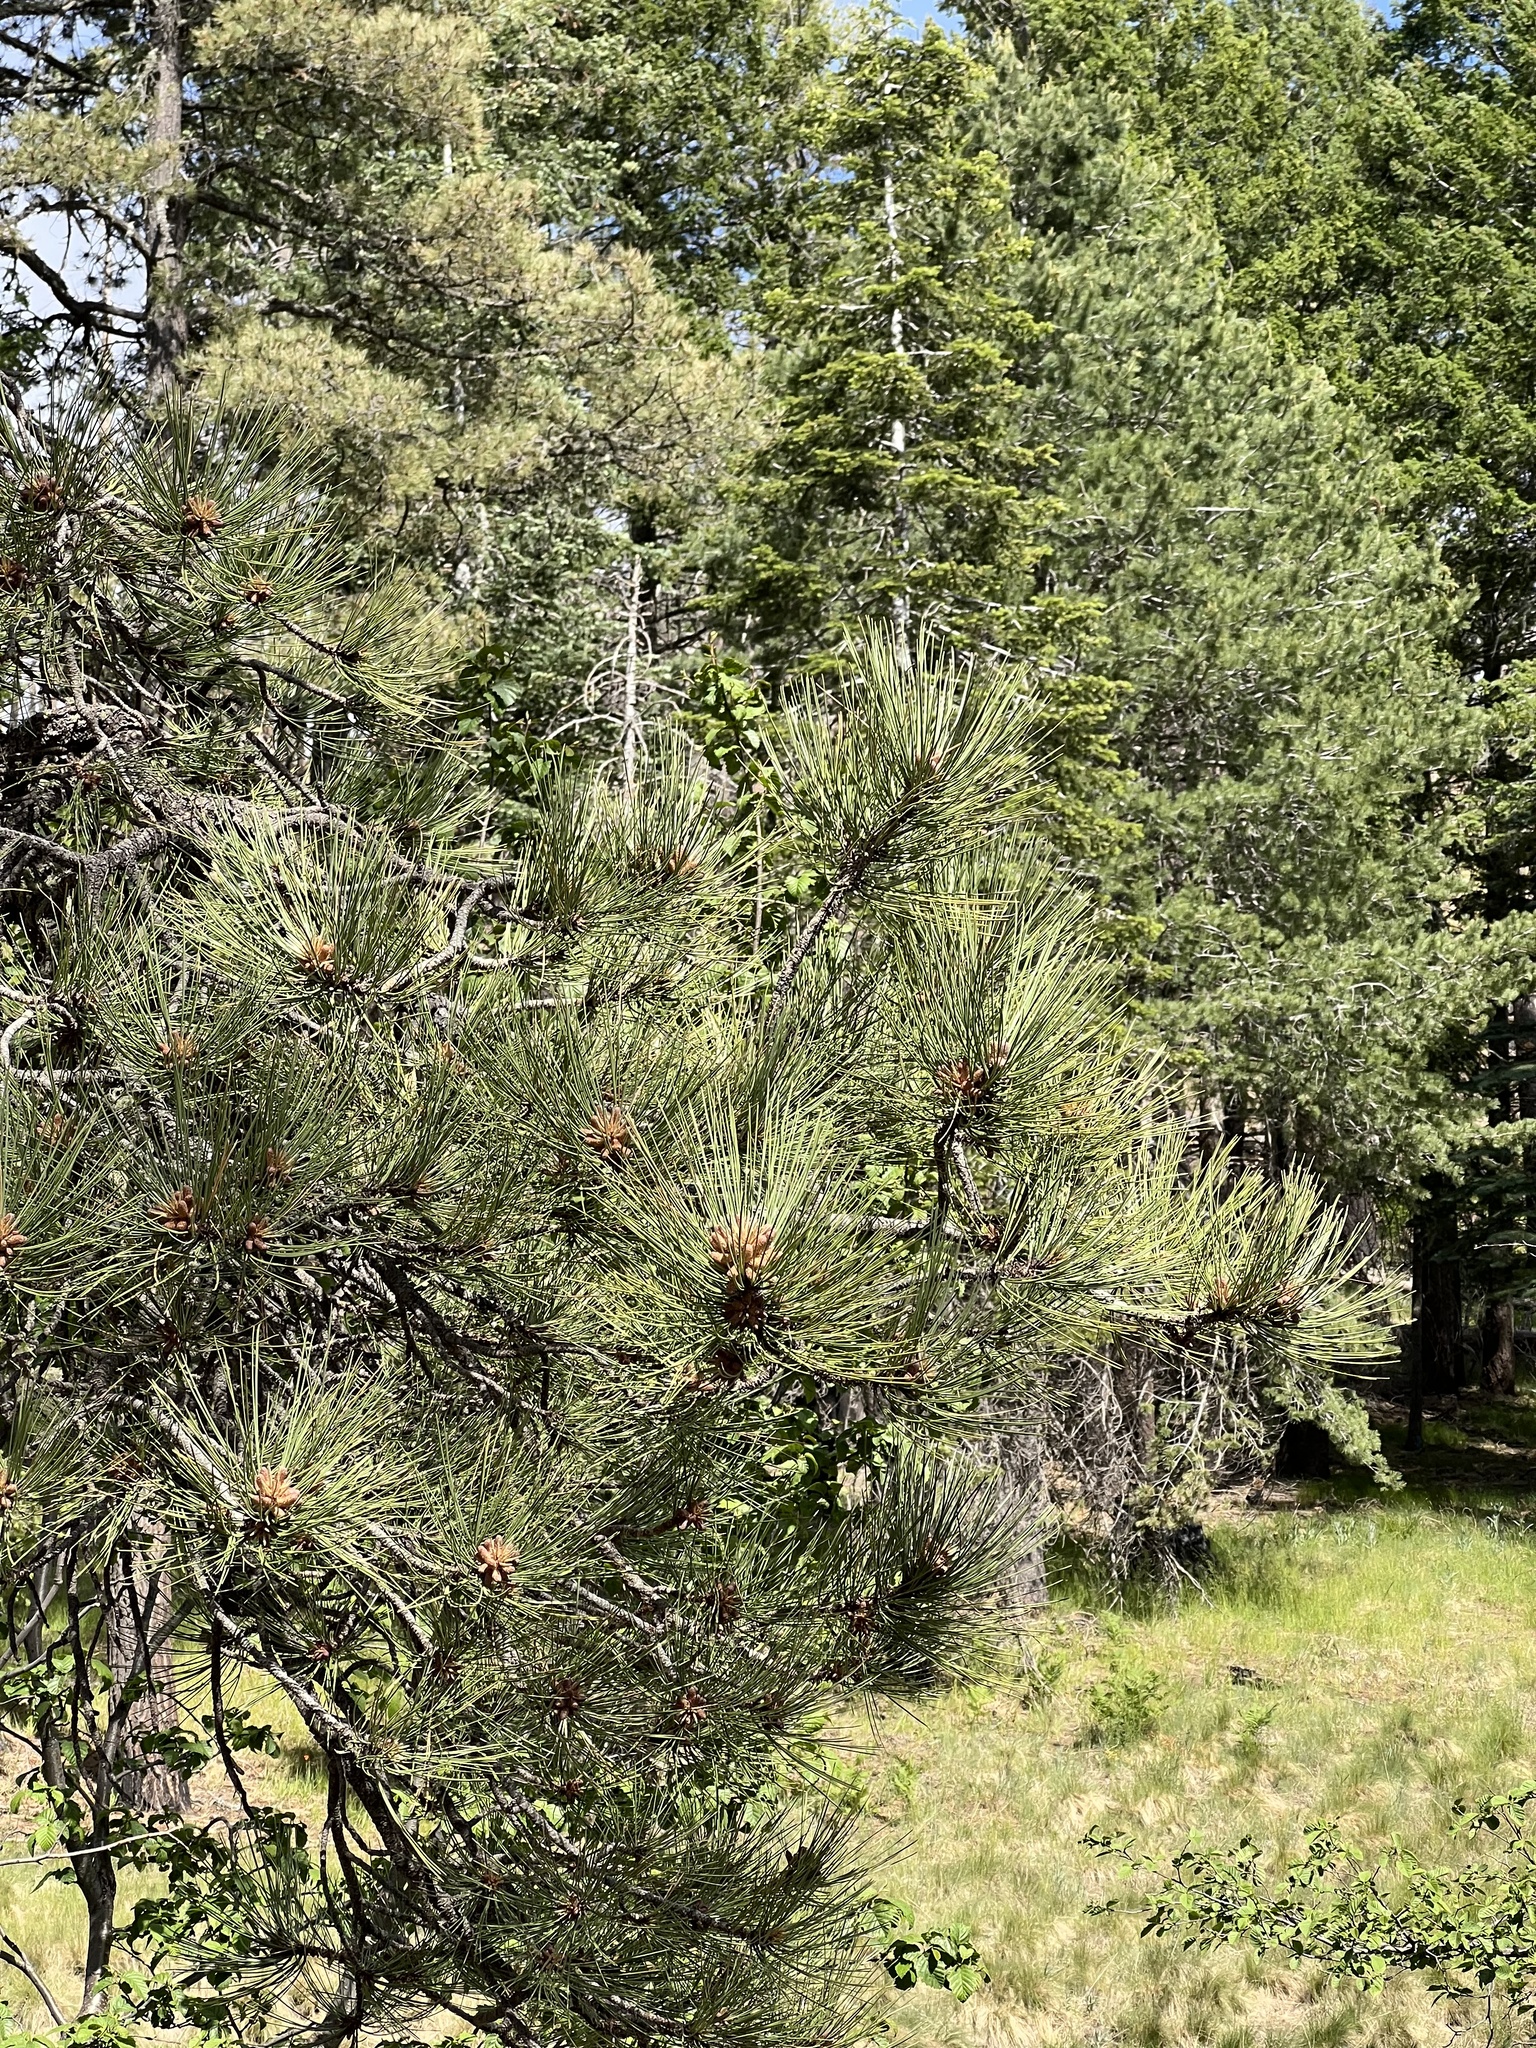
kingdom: Plantae
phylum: Tracheophyta
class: Pinopsida
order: Pinales
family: Pinaceae
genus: Pinus
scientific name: Pinus ponderosa
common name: Western yellow-pine
